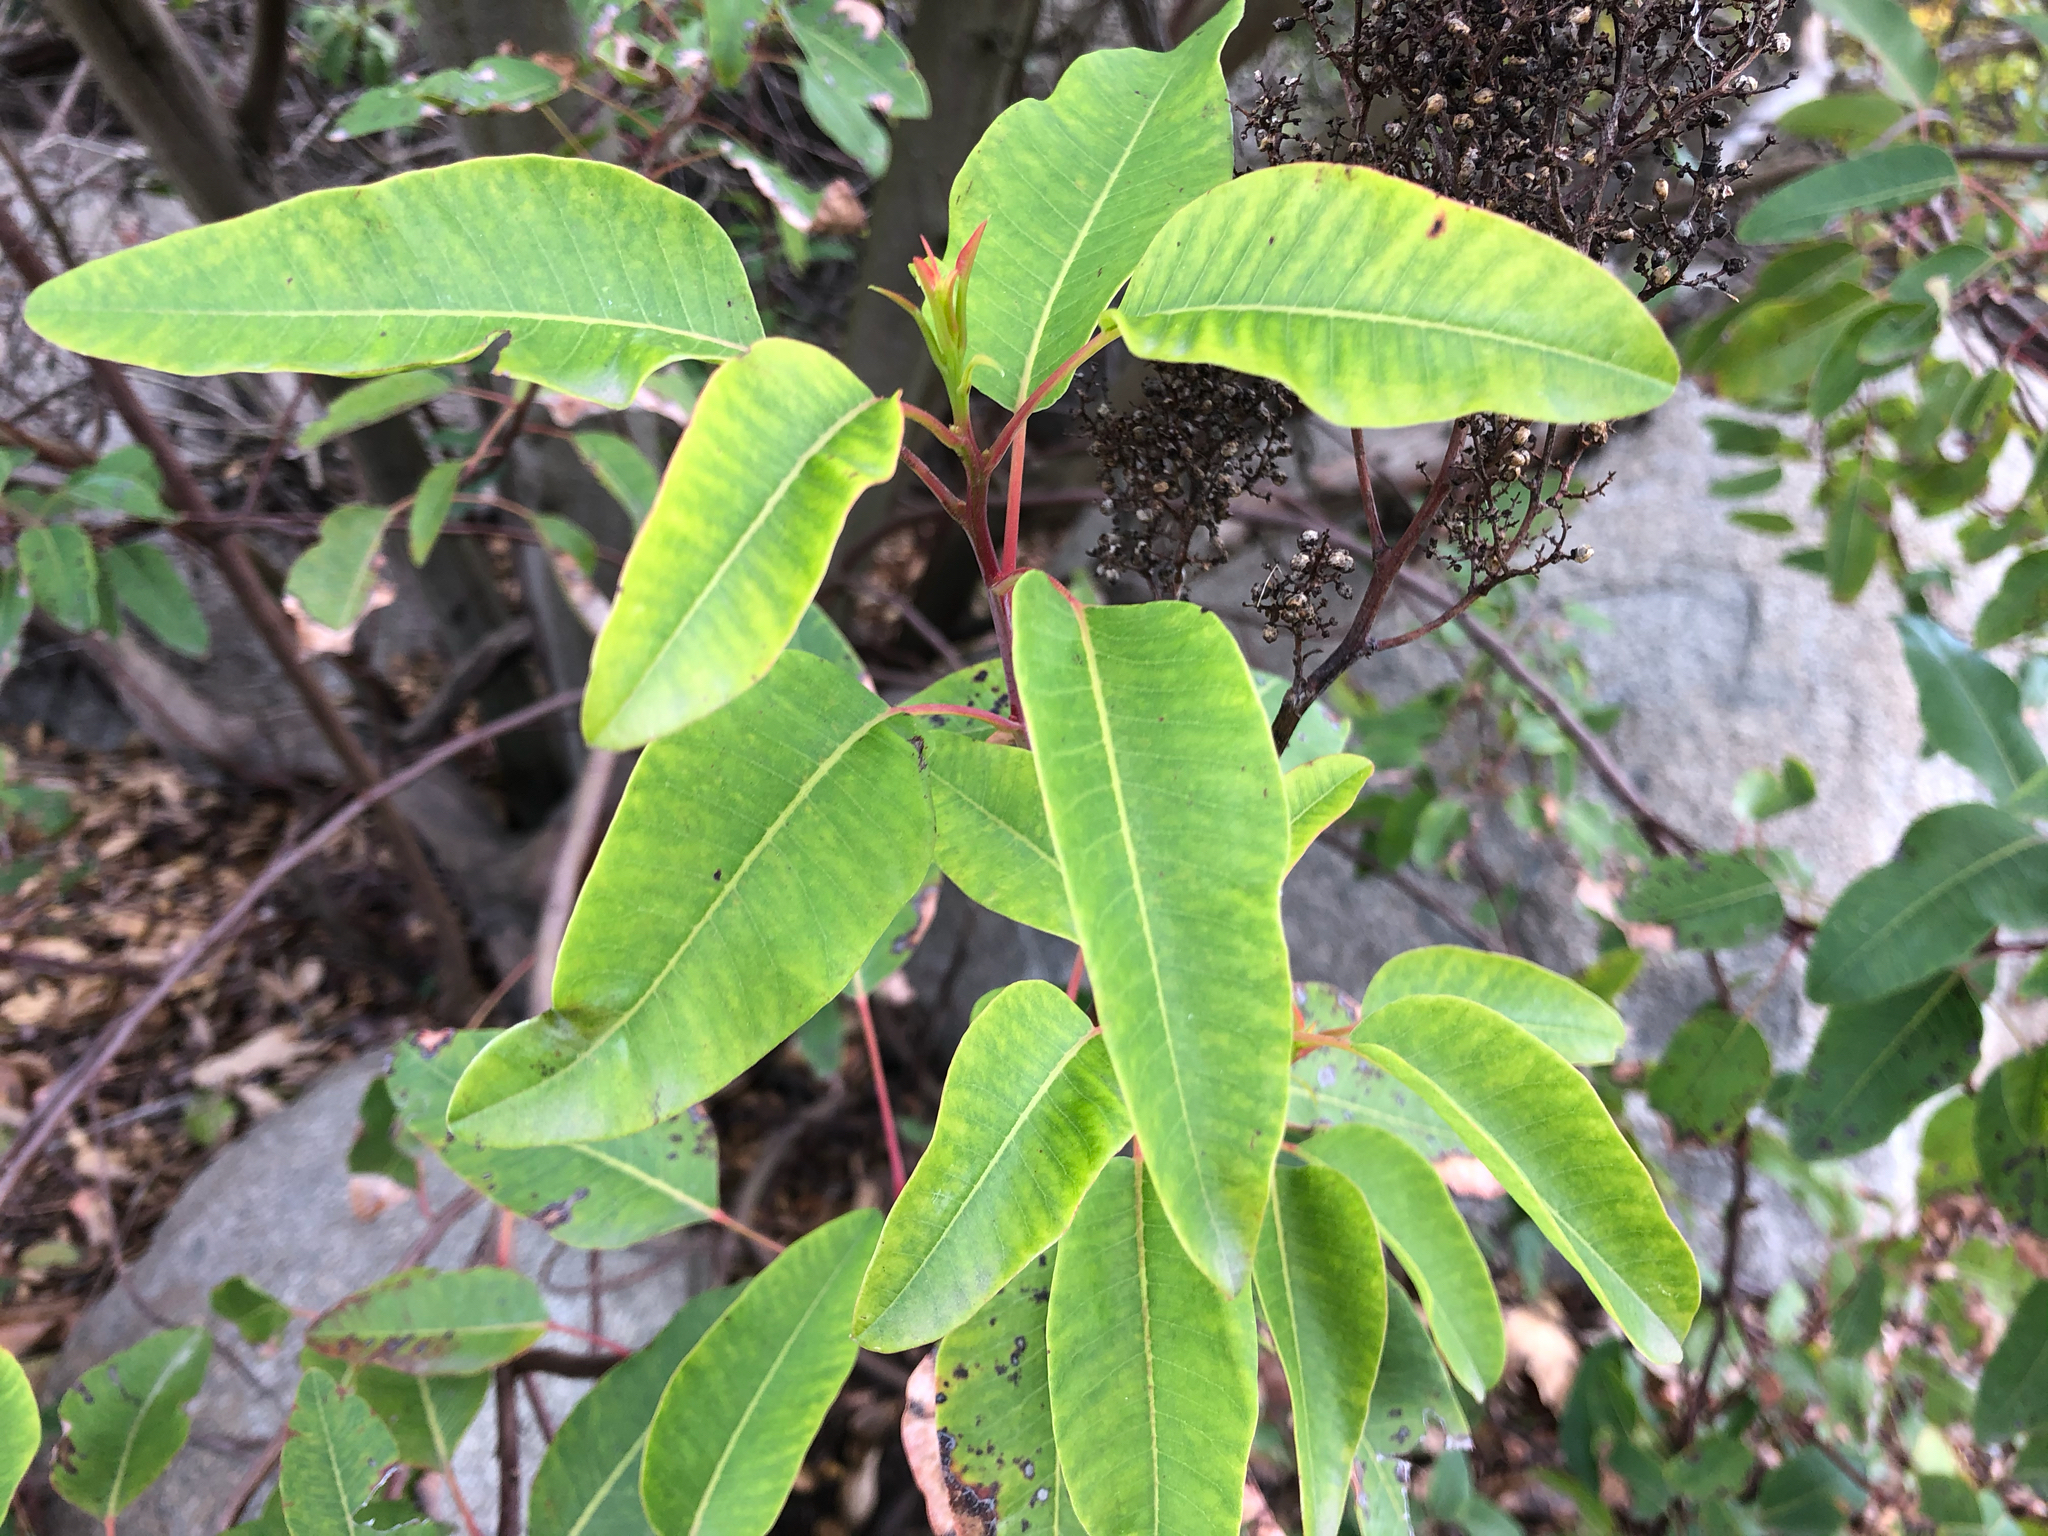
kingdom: Plantae
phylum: Tracheophyta
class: Magnoliopsida
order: Sapindales
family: Anacardiaceae
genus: Malosma
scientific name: Malosma laurina
